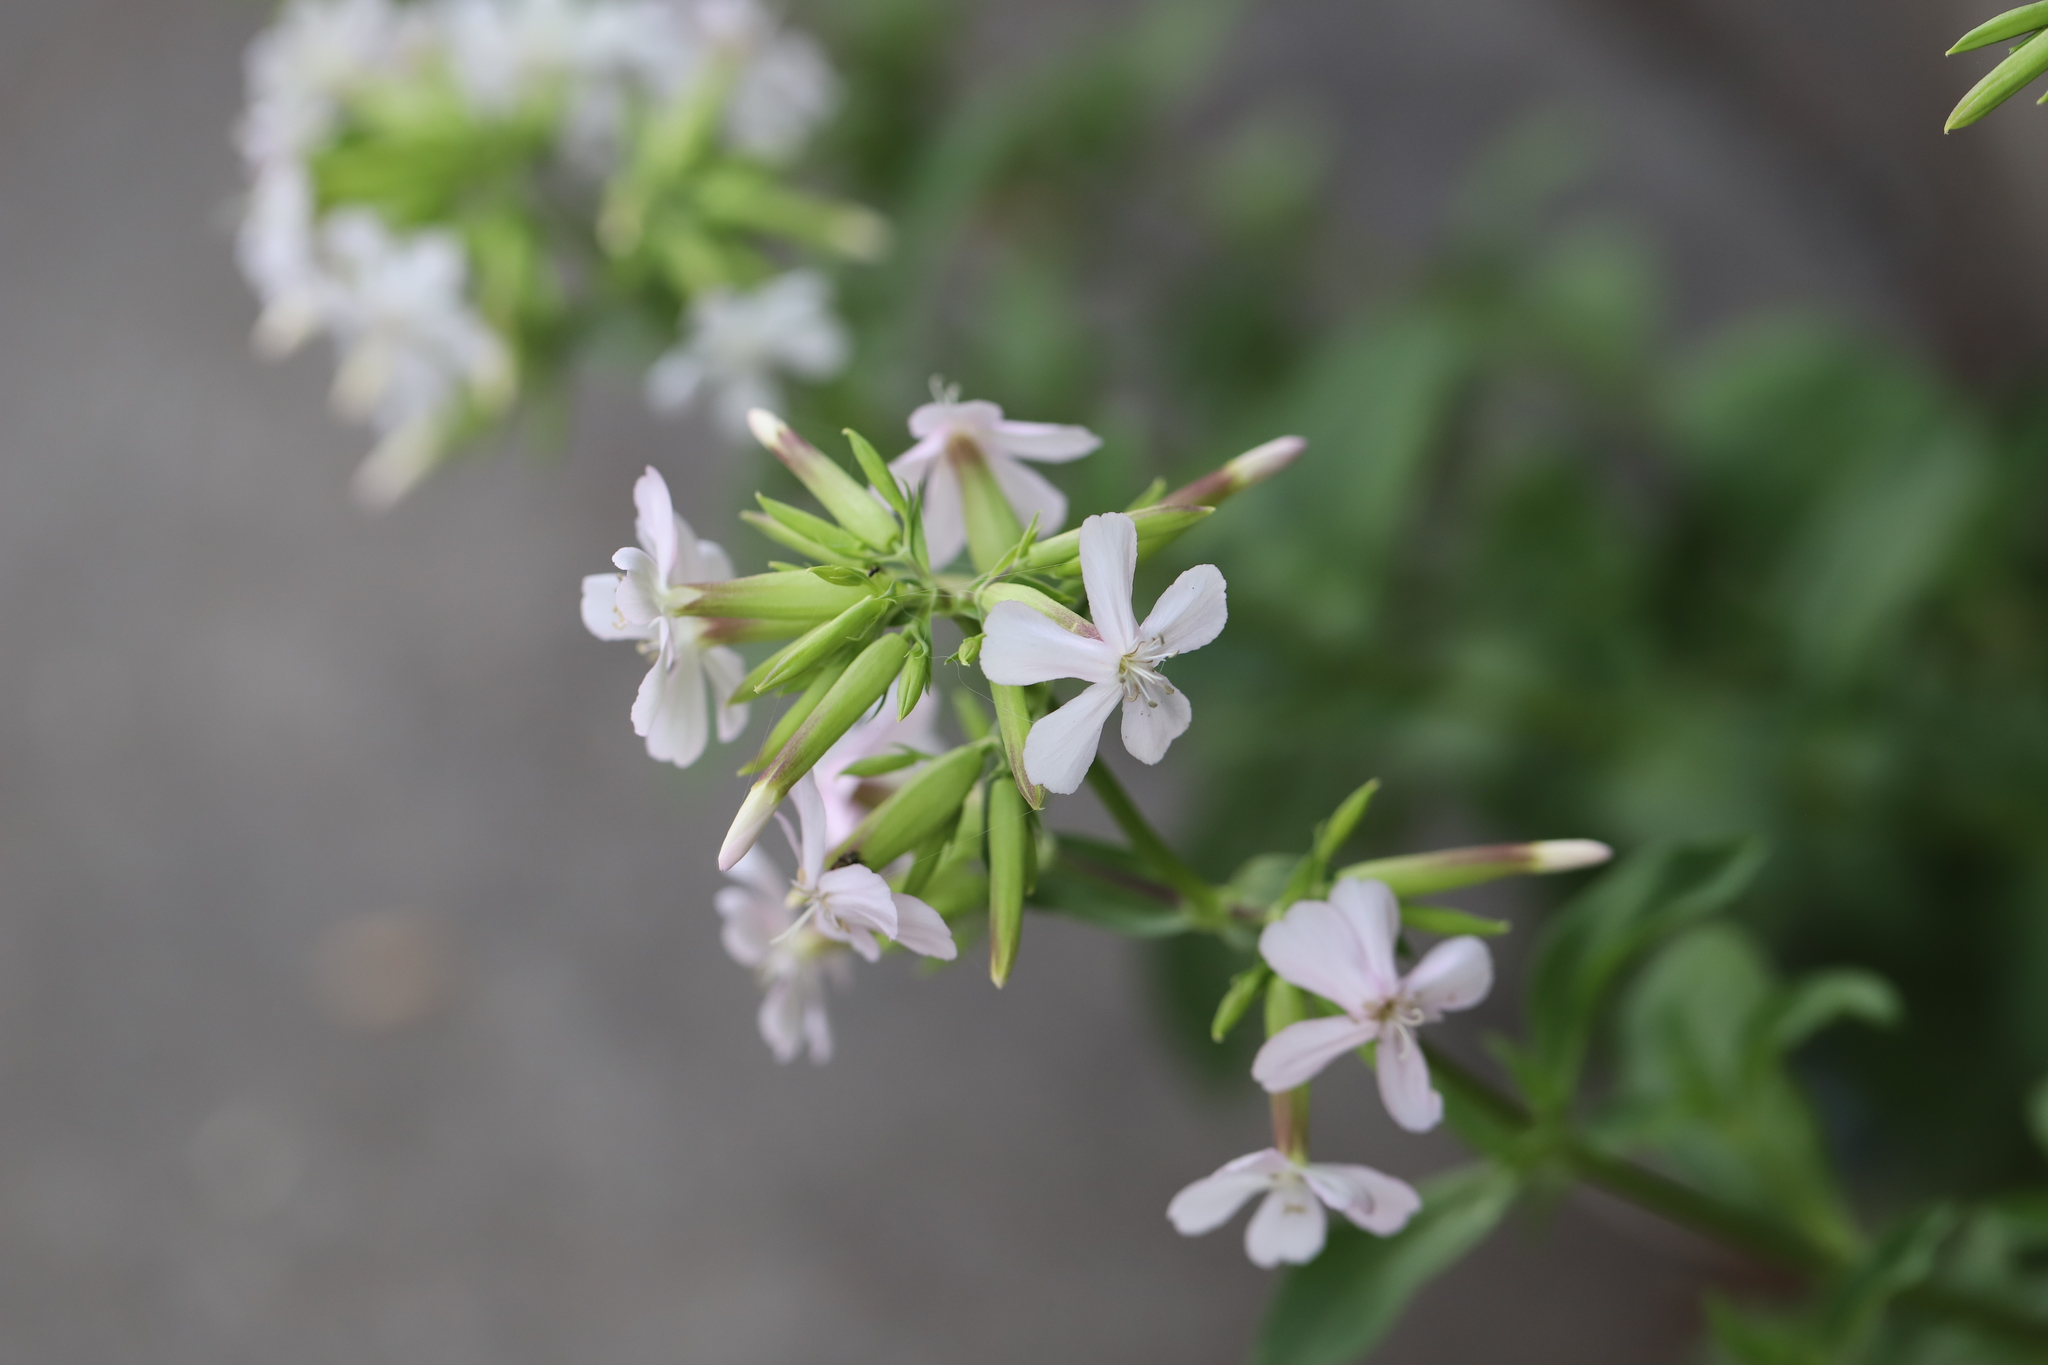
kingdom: Plantae
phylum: Tracheophyta
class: Magnoliopsida
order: Caryophyllales
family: Caryophyllaceae
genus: Saponaria
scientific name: Saponaria officinalis
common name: Soapwort
